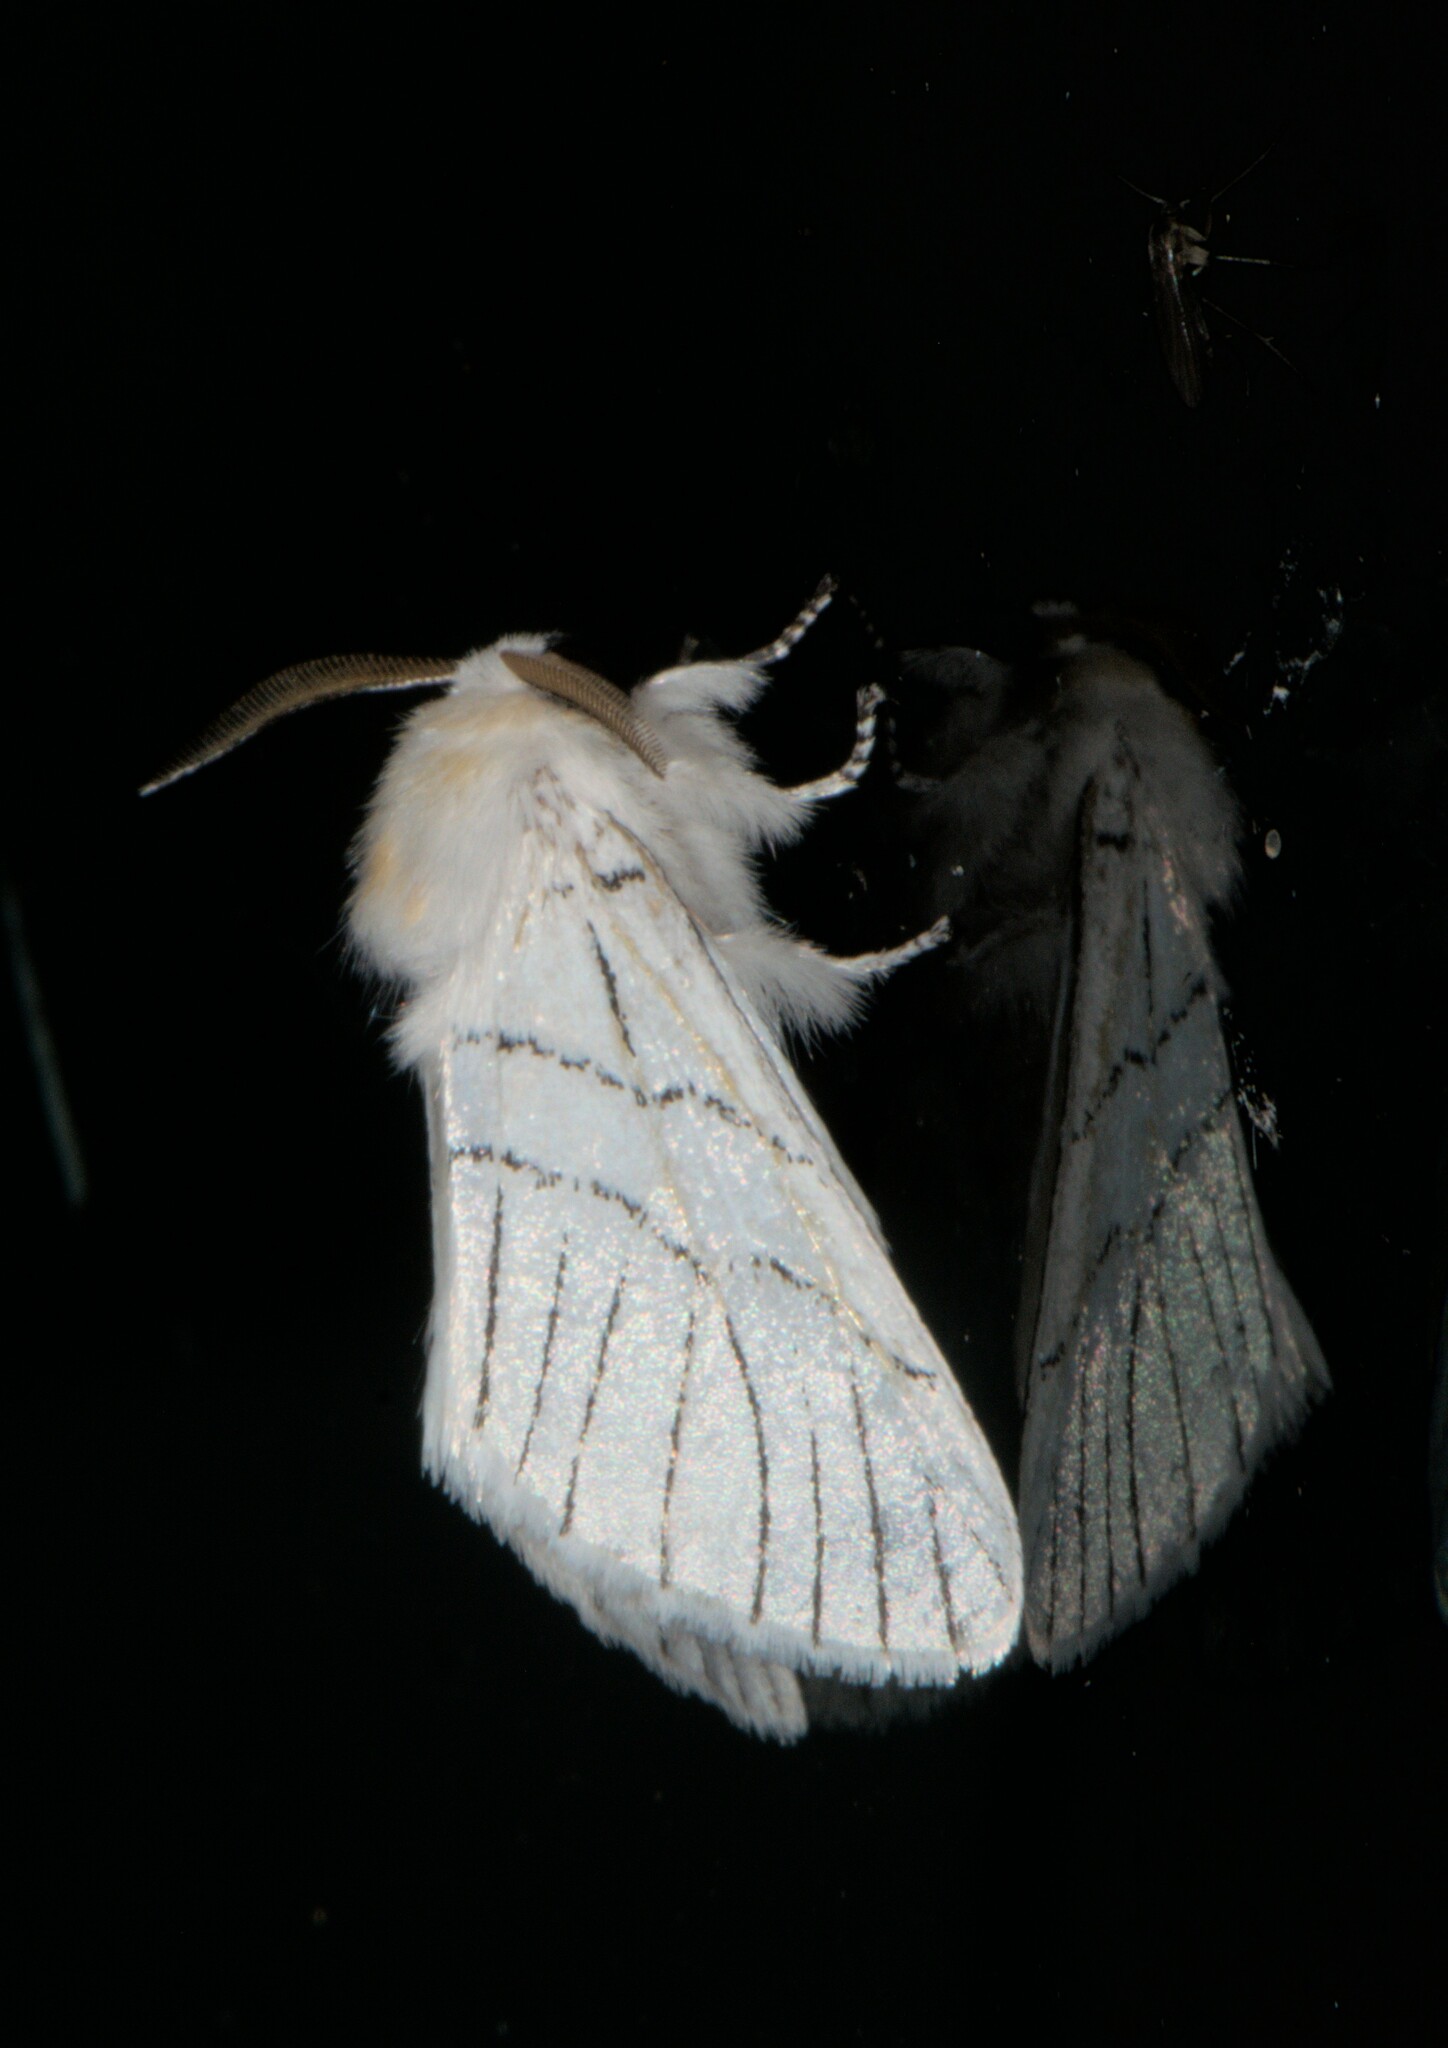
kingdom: Animalia
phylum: Arthropoda
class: Insecta
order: Lepidoptera
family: Notodontidae
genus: Oligoclona
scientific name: Oligoclona chrysolopha
